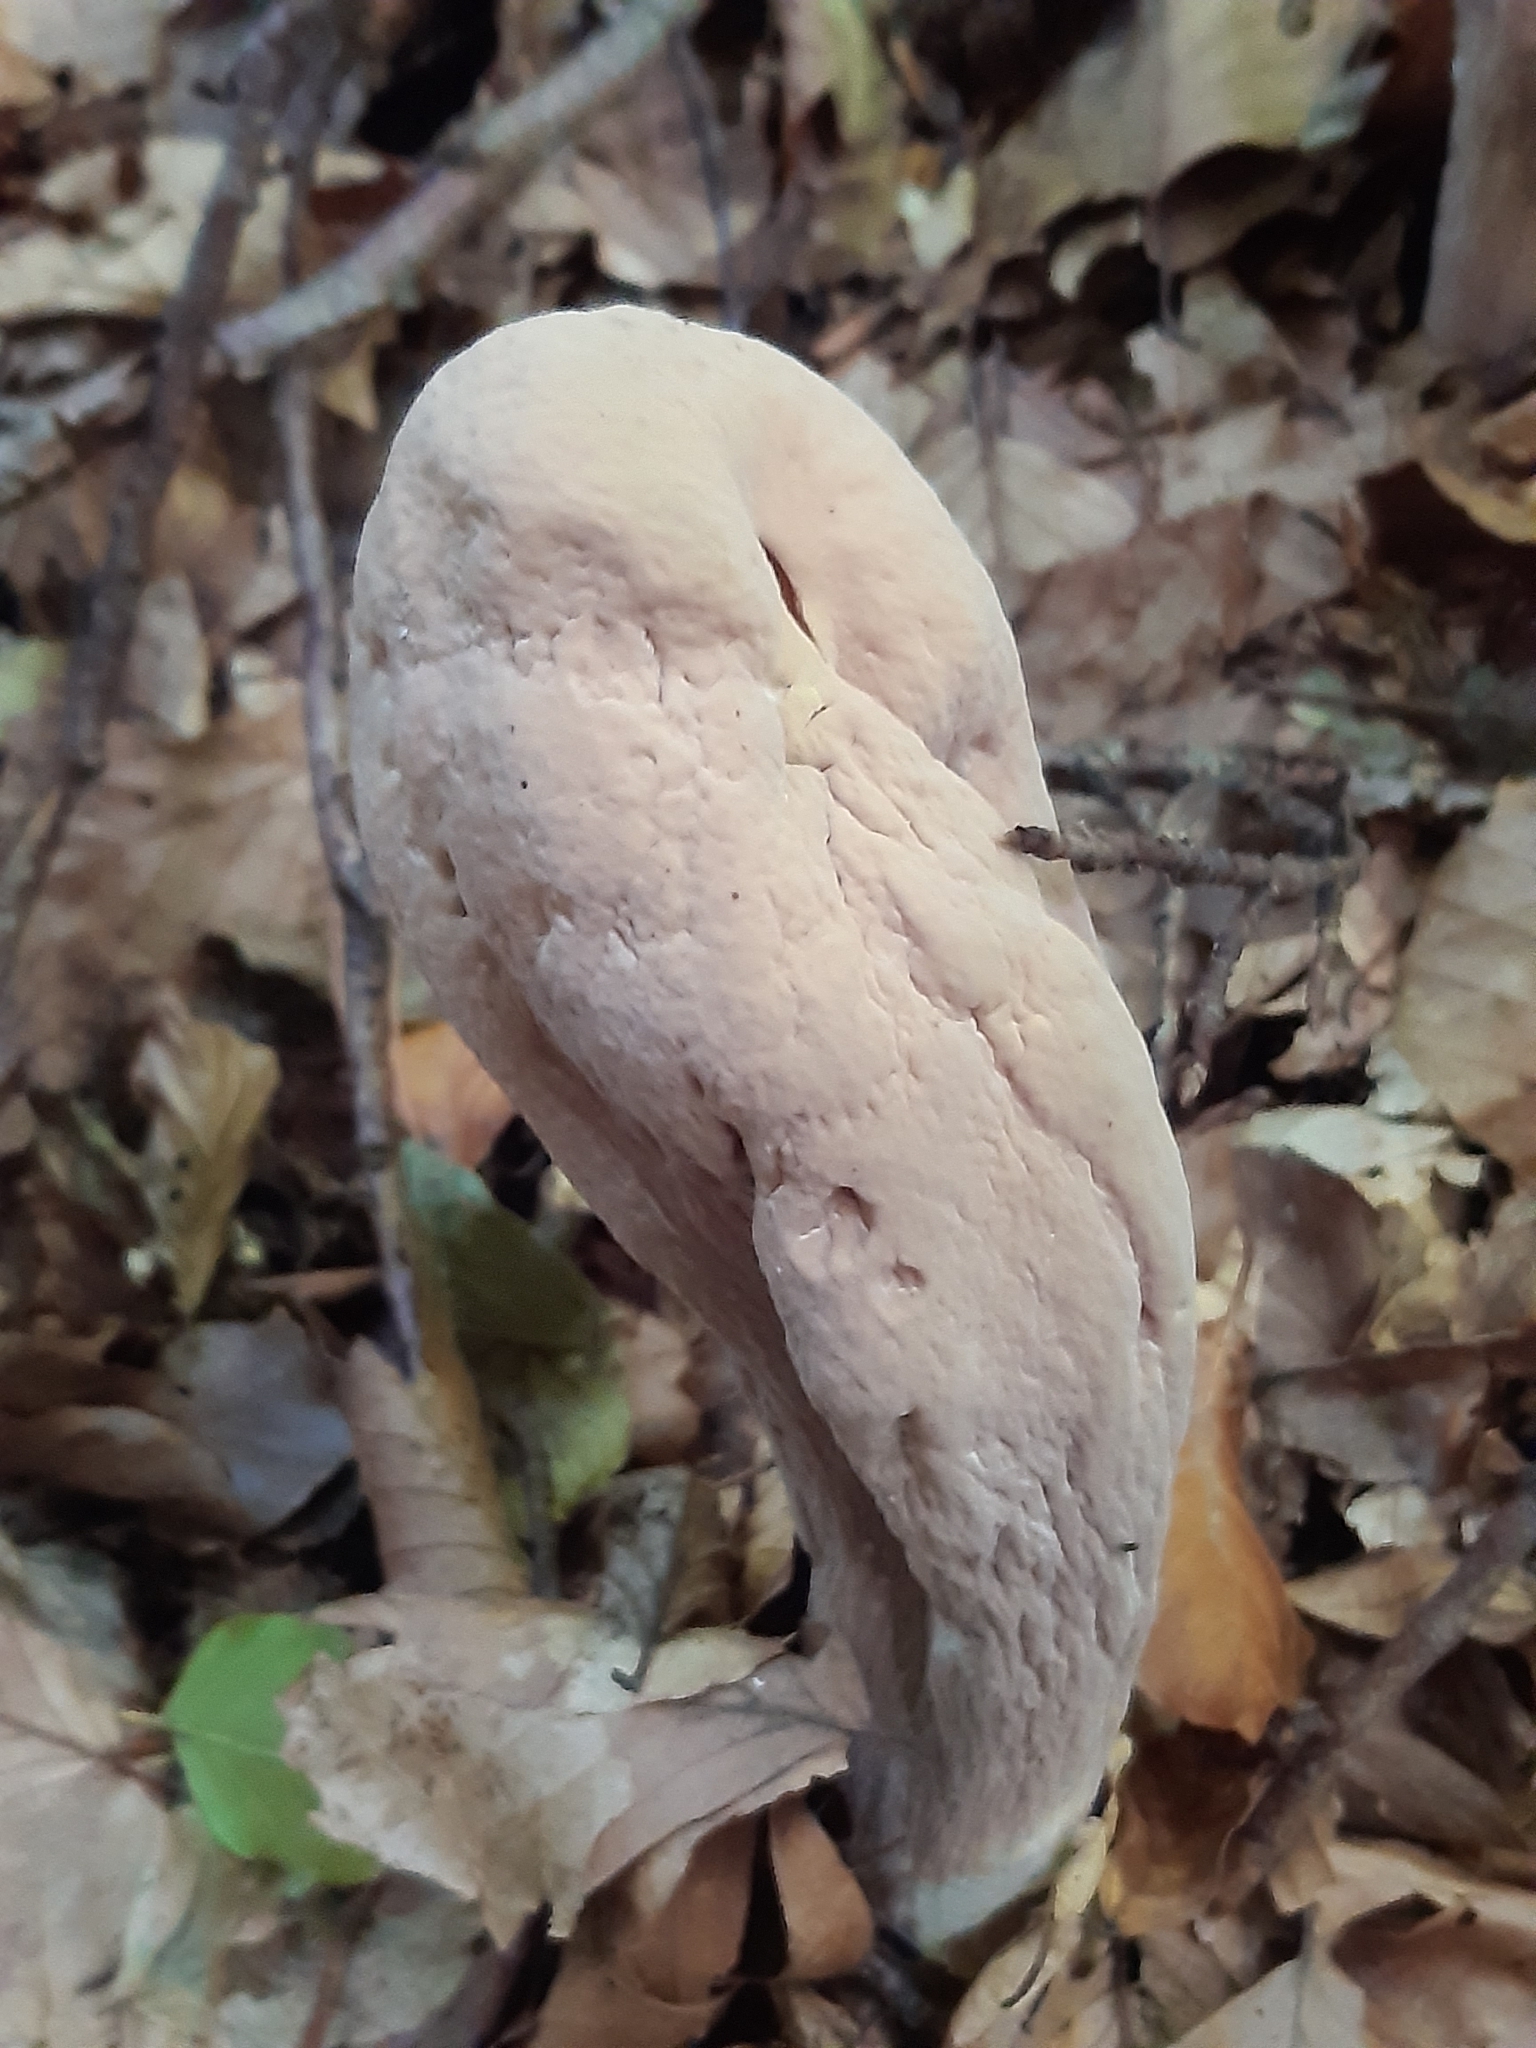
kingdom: Fungi
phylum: Basidiomycota
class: Agaricomycetes
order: Gomphales
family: Clavariadelphaceae
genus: Clavariadelphus
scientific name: Clavariadelphus pistillaris
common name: Giant club
